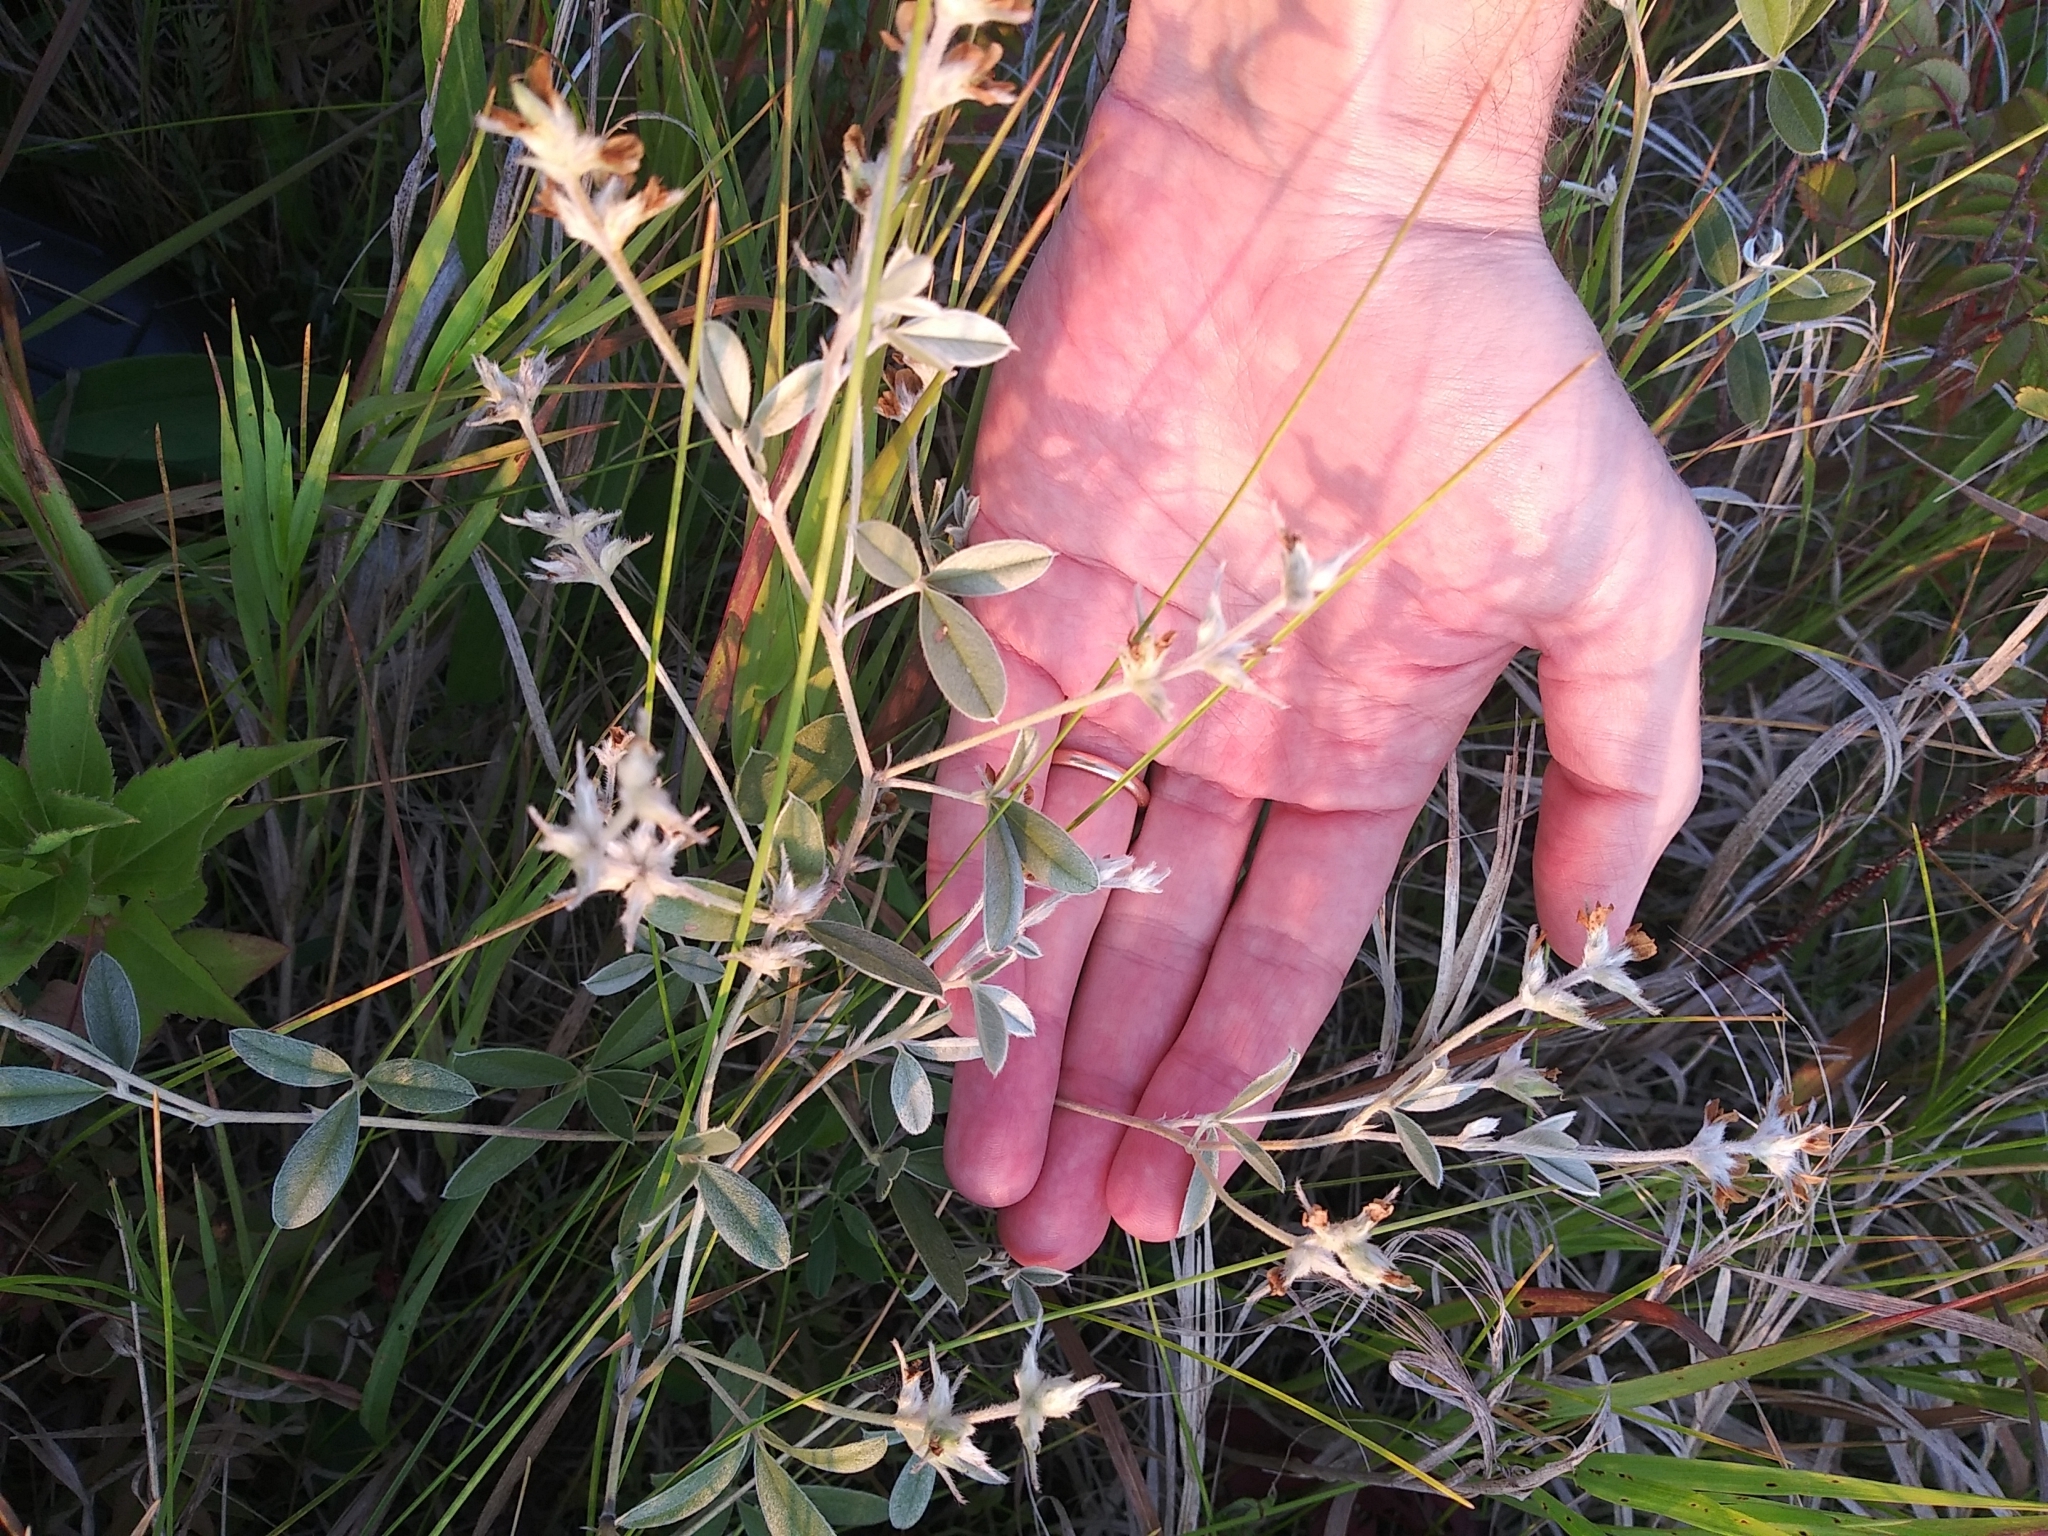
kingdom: Plantae
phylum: Tracheophyta
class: Magnoliopsida
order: Fabales
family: Fabaceae
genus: Pediomelum
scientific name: Pediomelum argophyllum
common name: Silver-leaved indian breadroot
